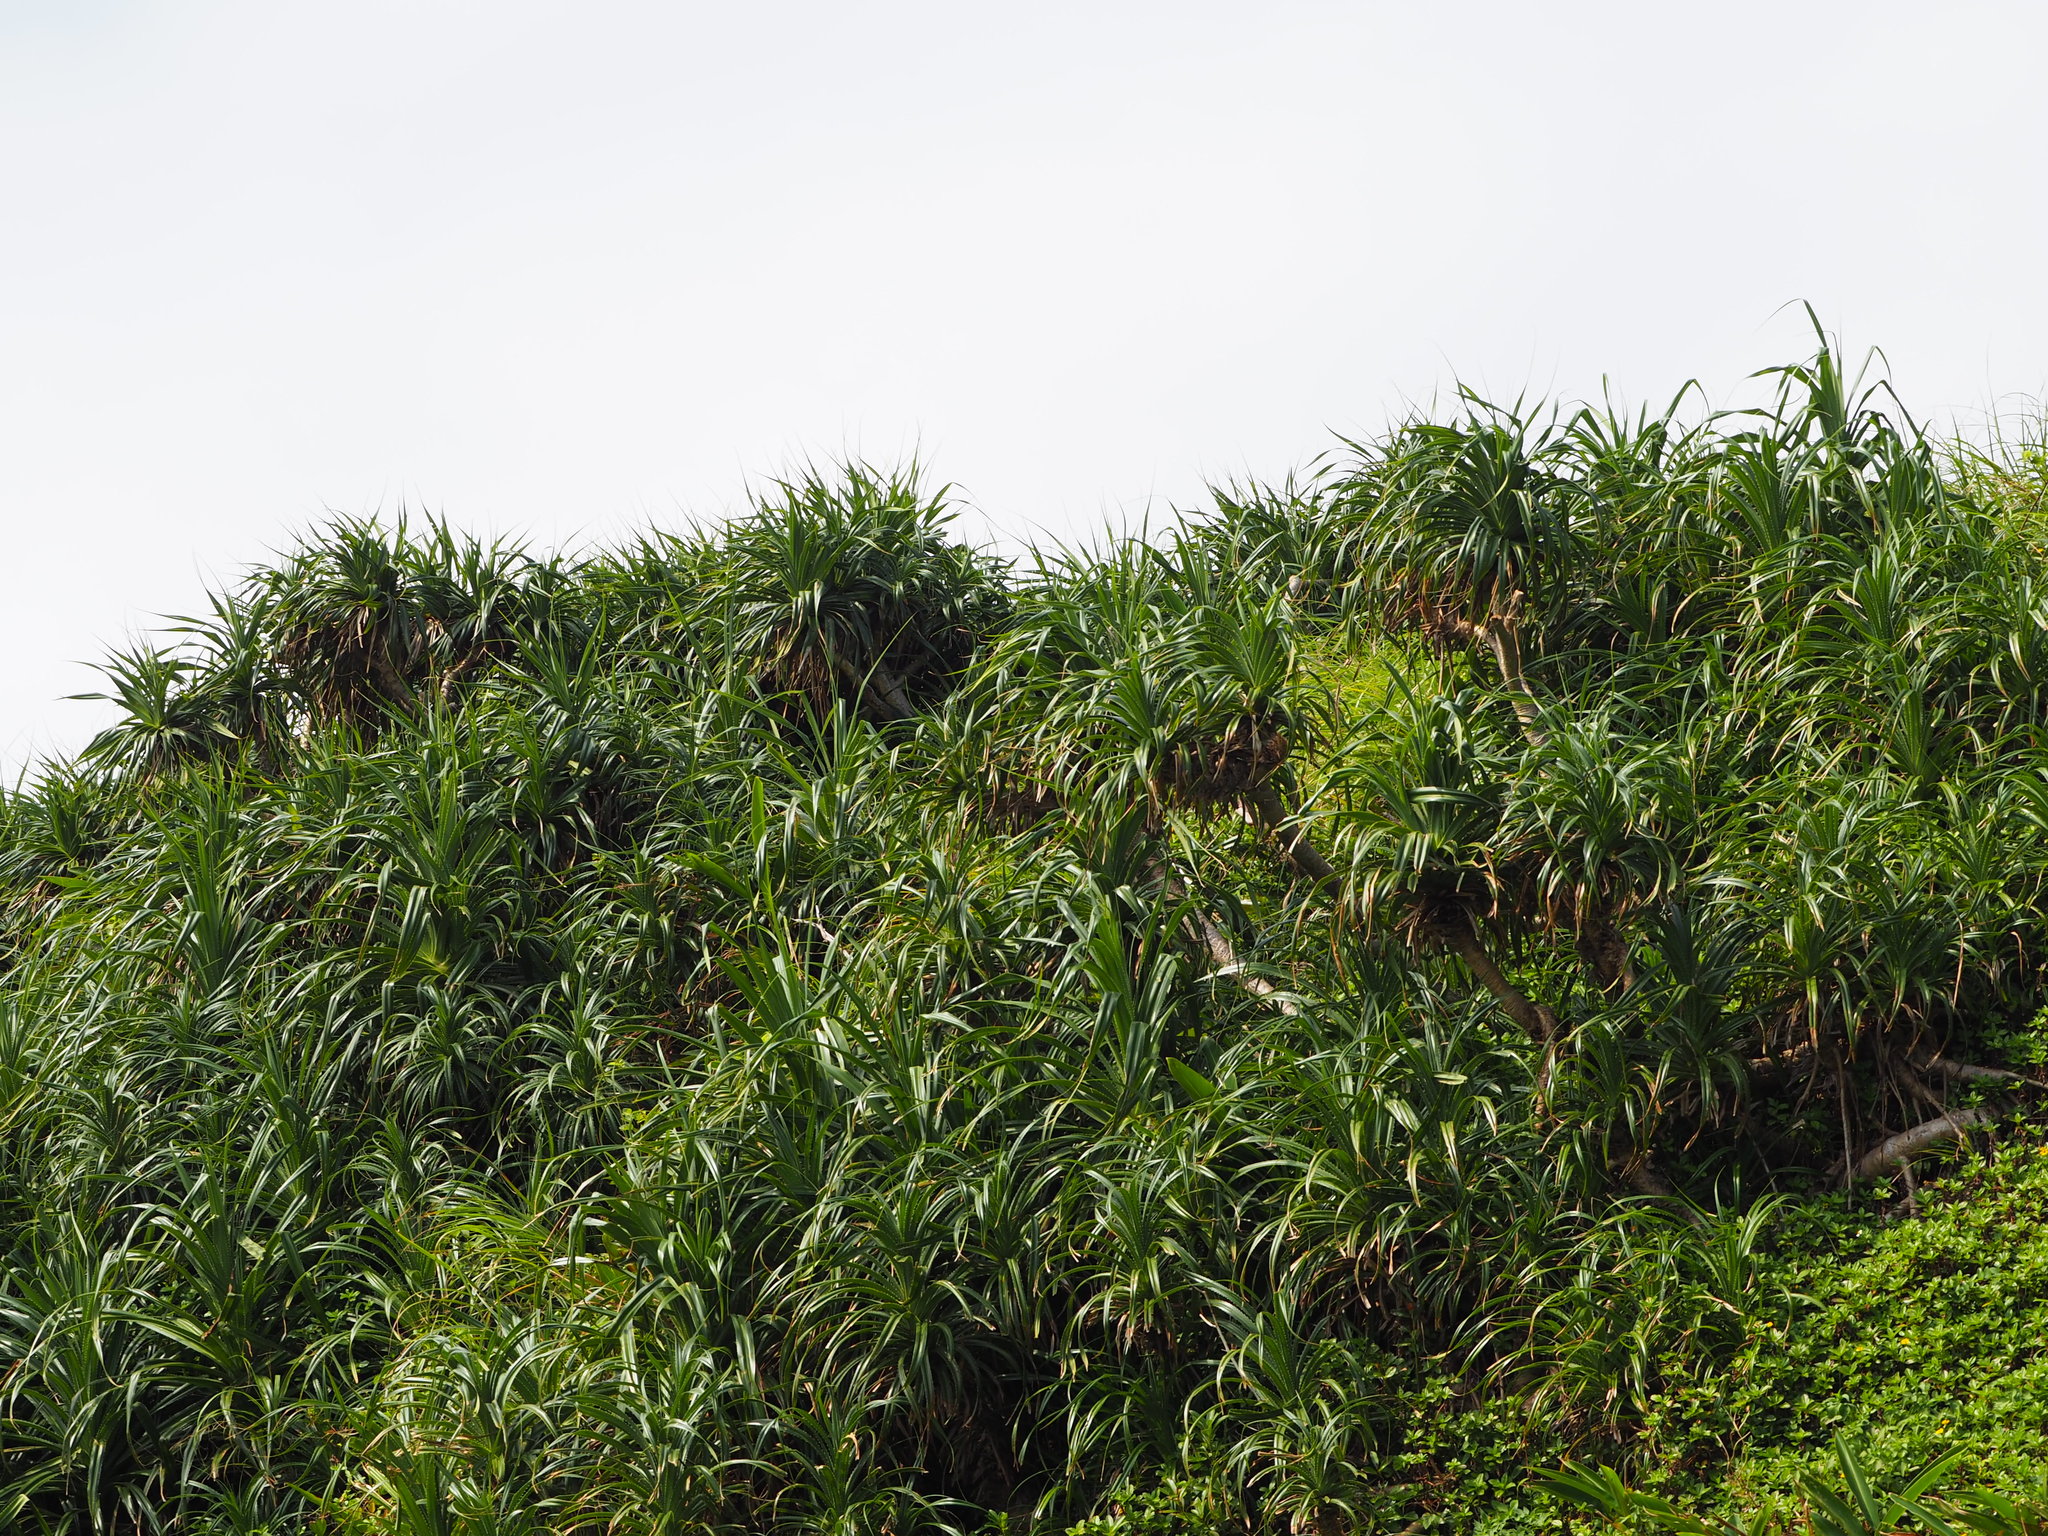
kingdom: Plantae
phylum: Tracheophyta
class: Liliopsida
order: Pandanales
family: Pandanaceae
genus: Pandanus
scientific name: Pandanus odorifer
